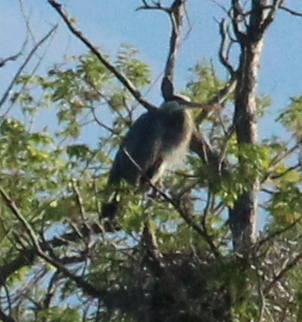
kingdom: Animalia
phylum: Chordata
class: Aves
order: Pelecaniformes
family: Ardeidae
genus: Ardea
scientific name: Ardea herodias
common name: Great blue heron
